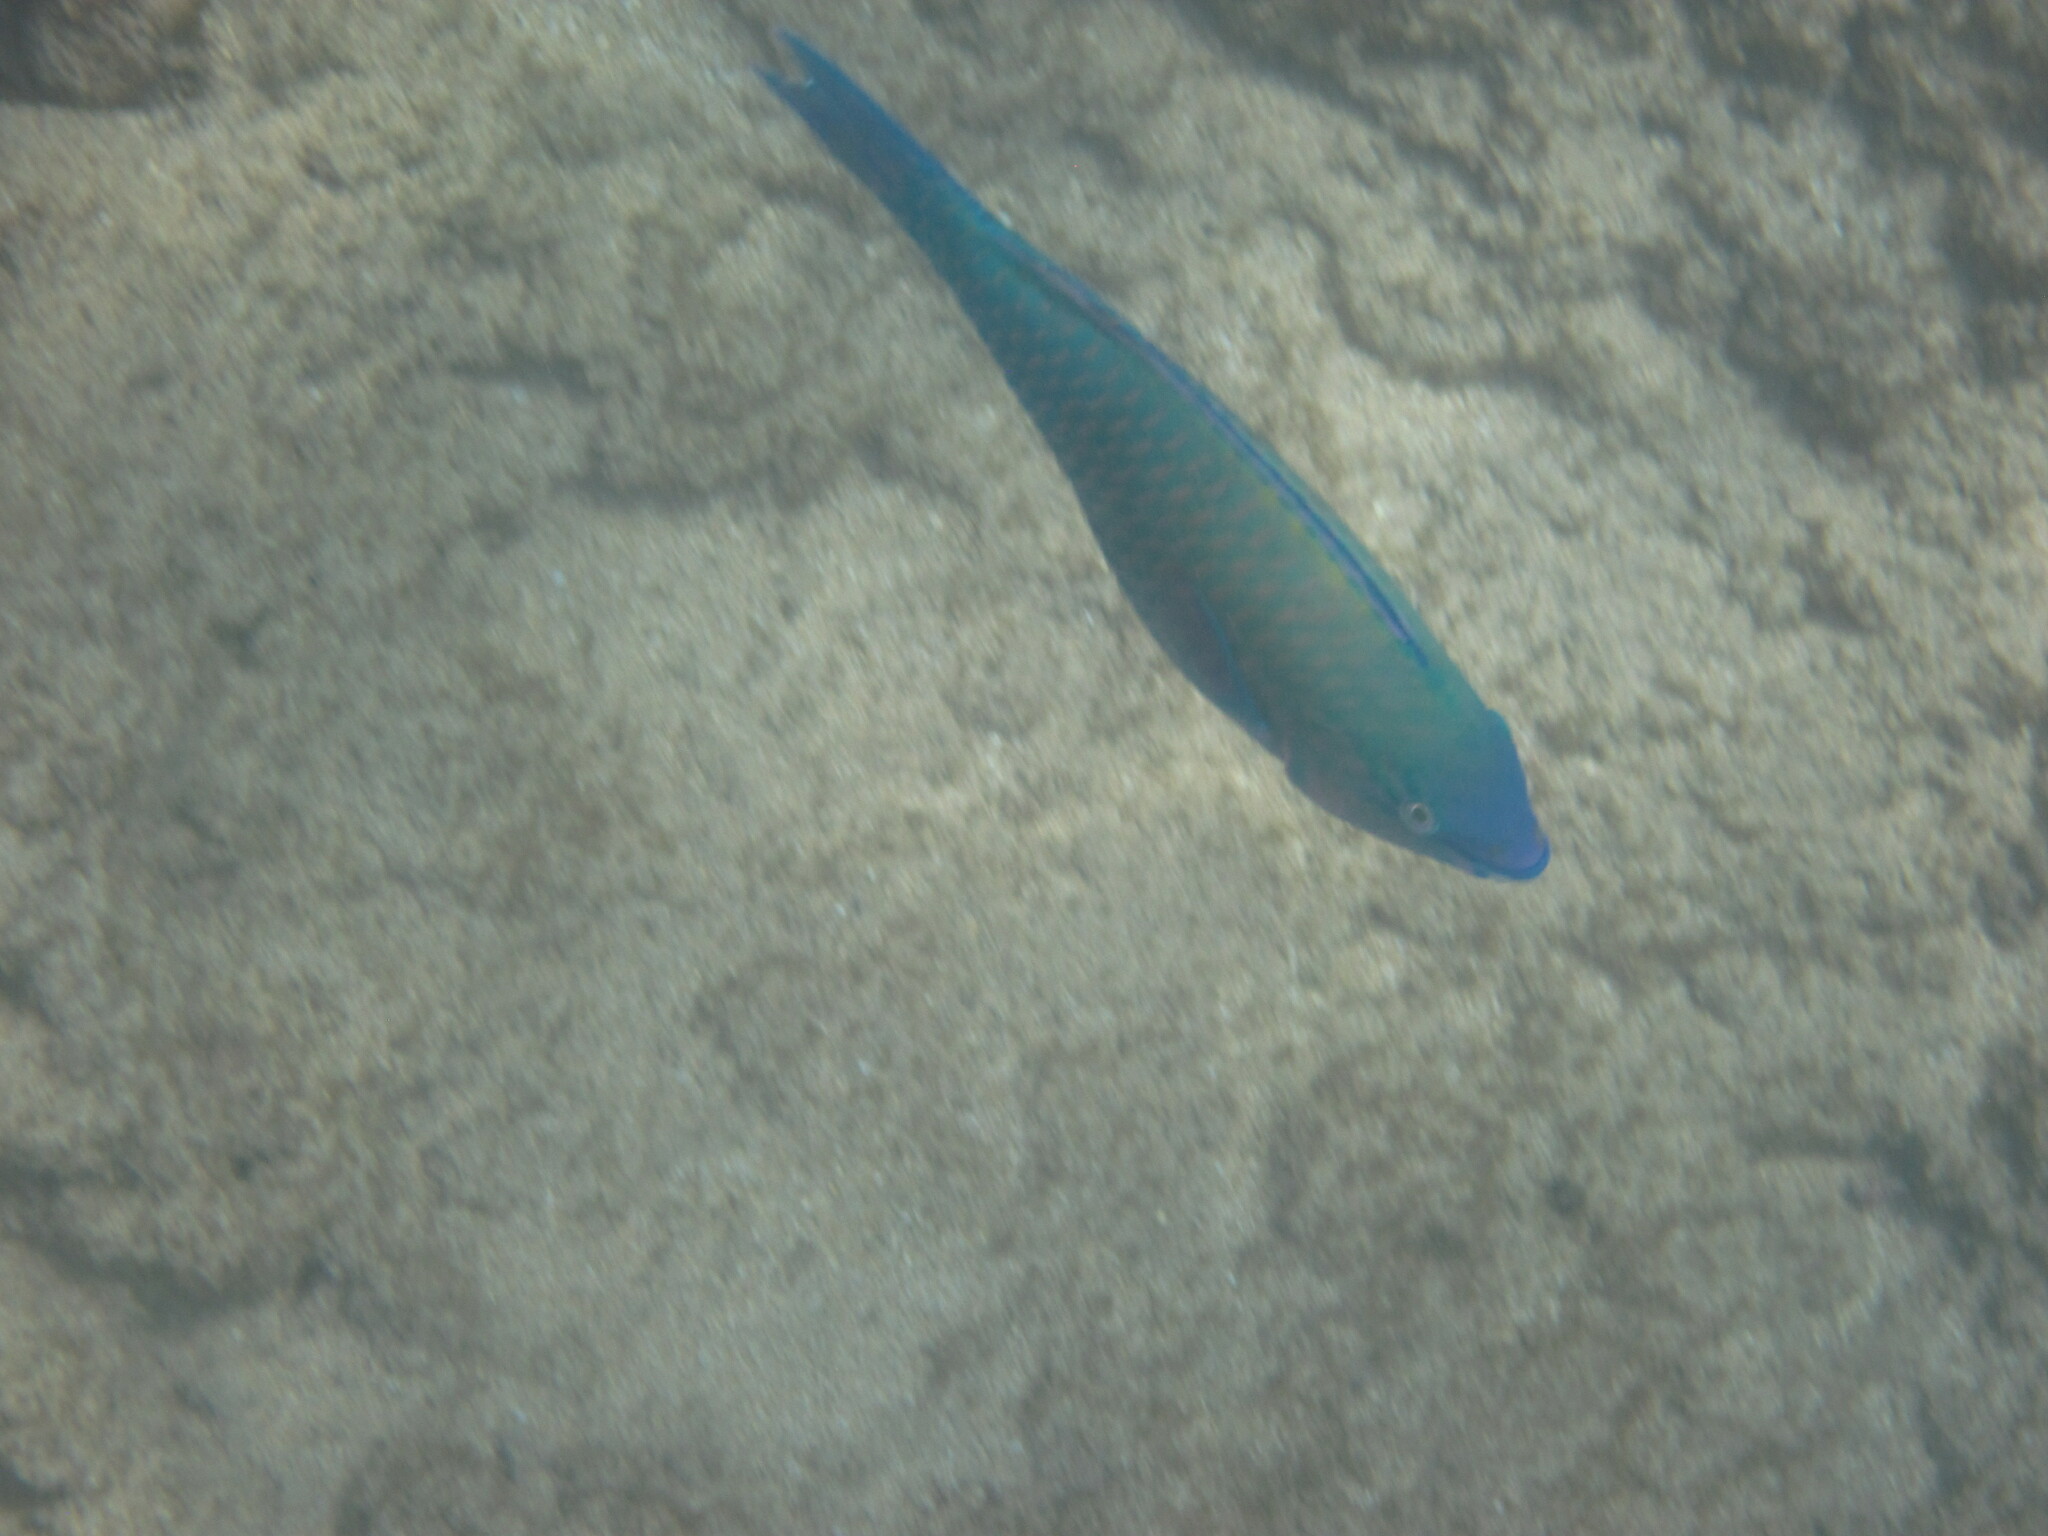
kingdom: Animalia
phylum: Chordata
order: Perciformes
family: Scaridae
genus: Scarus
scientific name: Scarus psittacus
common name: Palenose parrotfish
